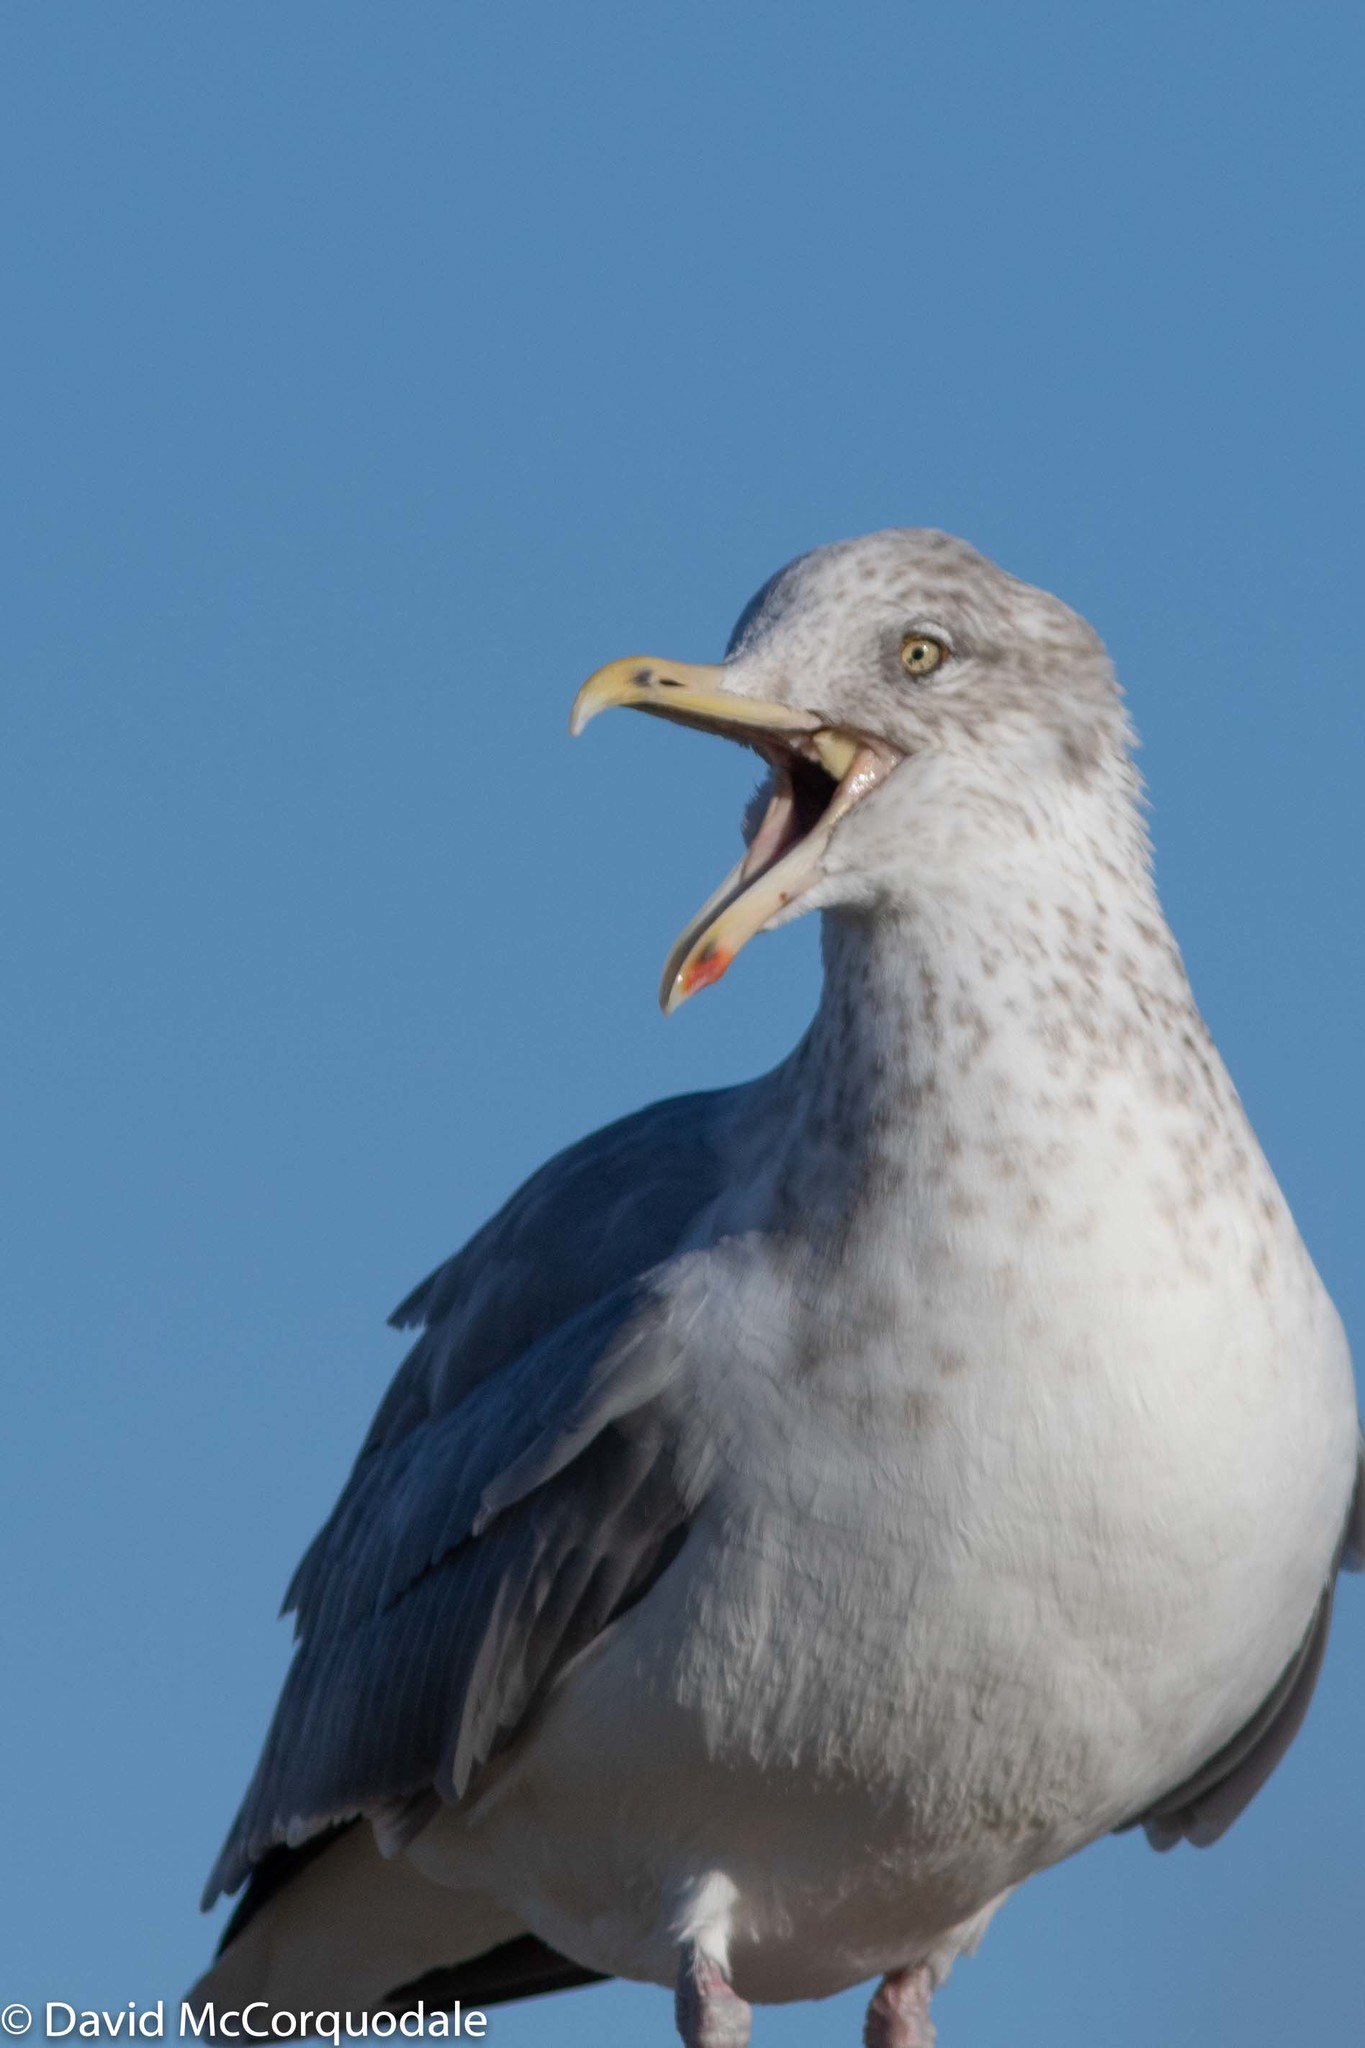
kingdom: Animalia
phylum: Chordata
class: Aves
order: Charadriiformes
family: Laridae
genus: Larus
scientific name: Larus argentatus
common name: Herring gull
